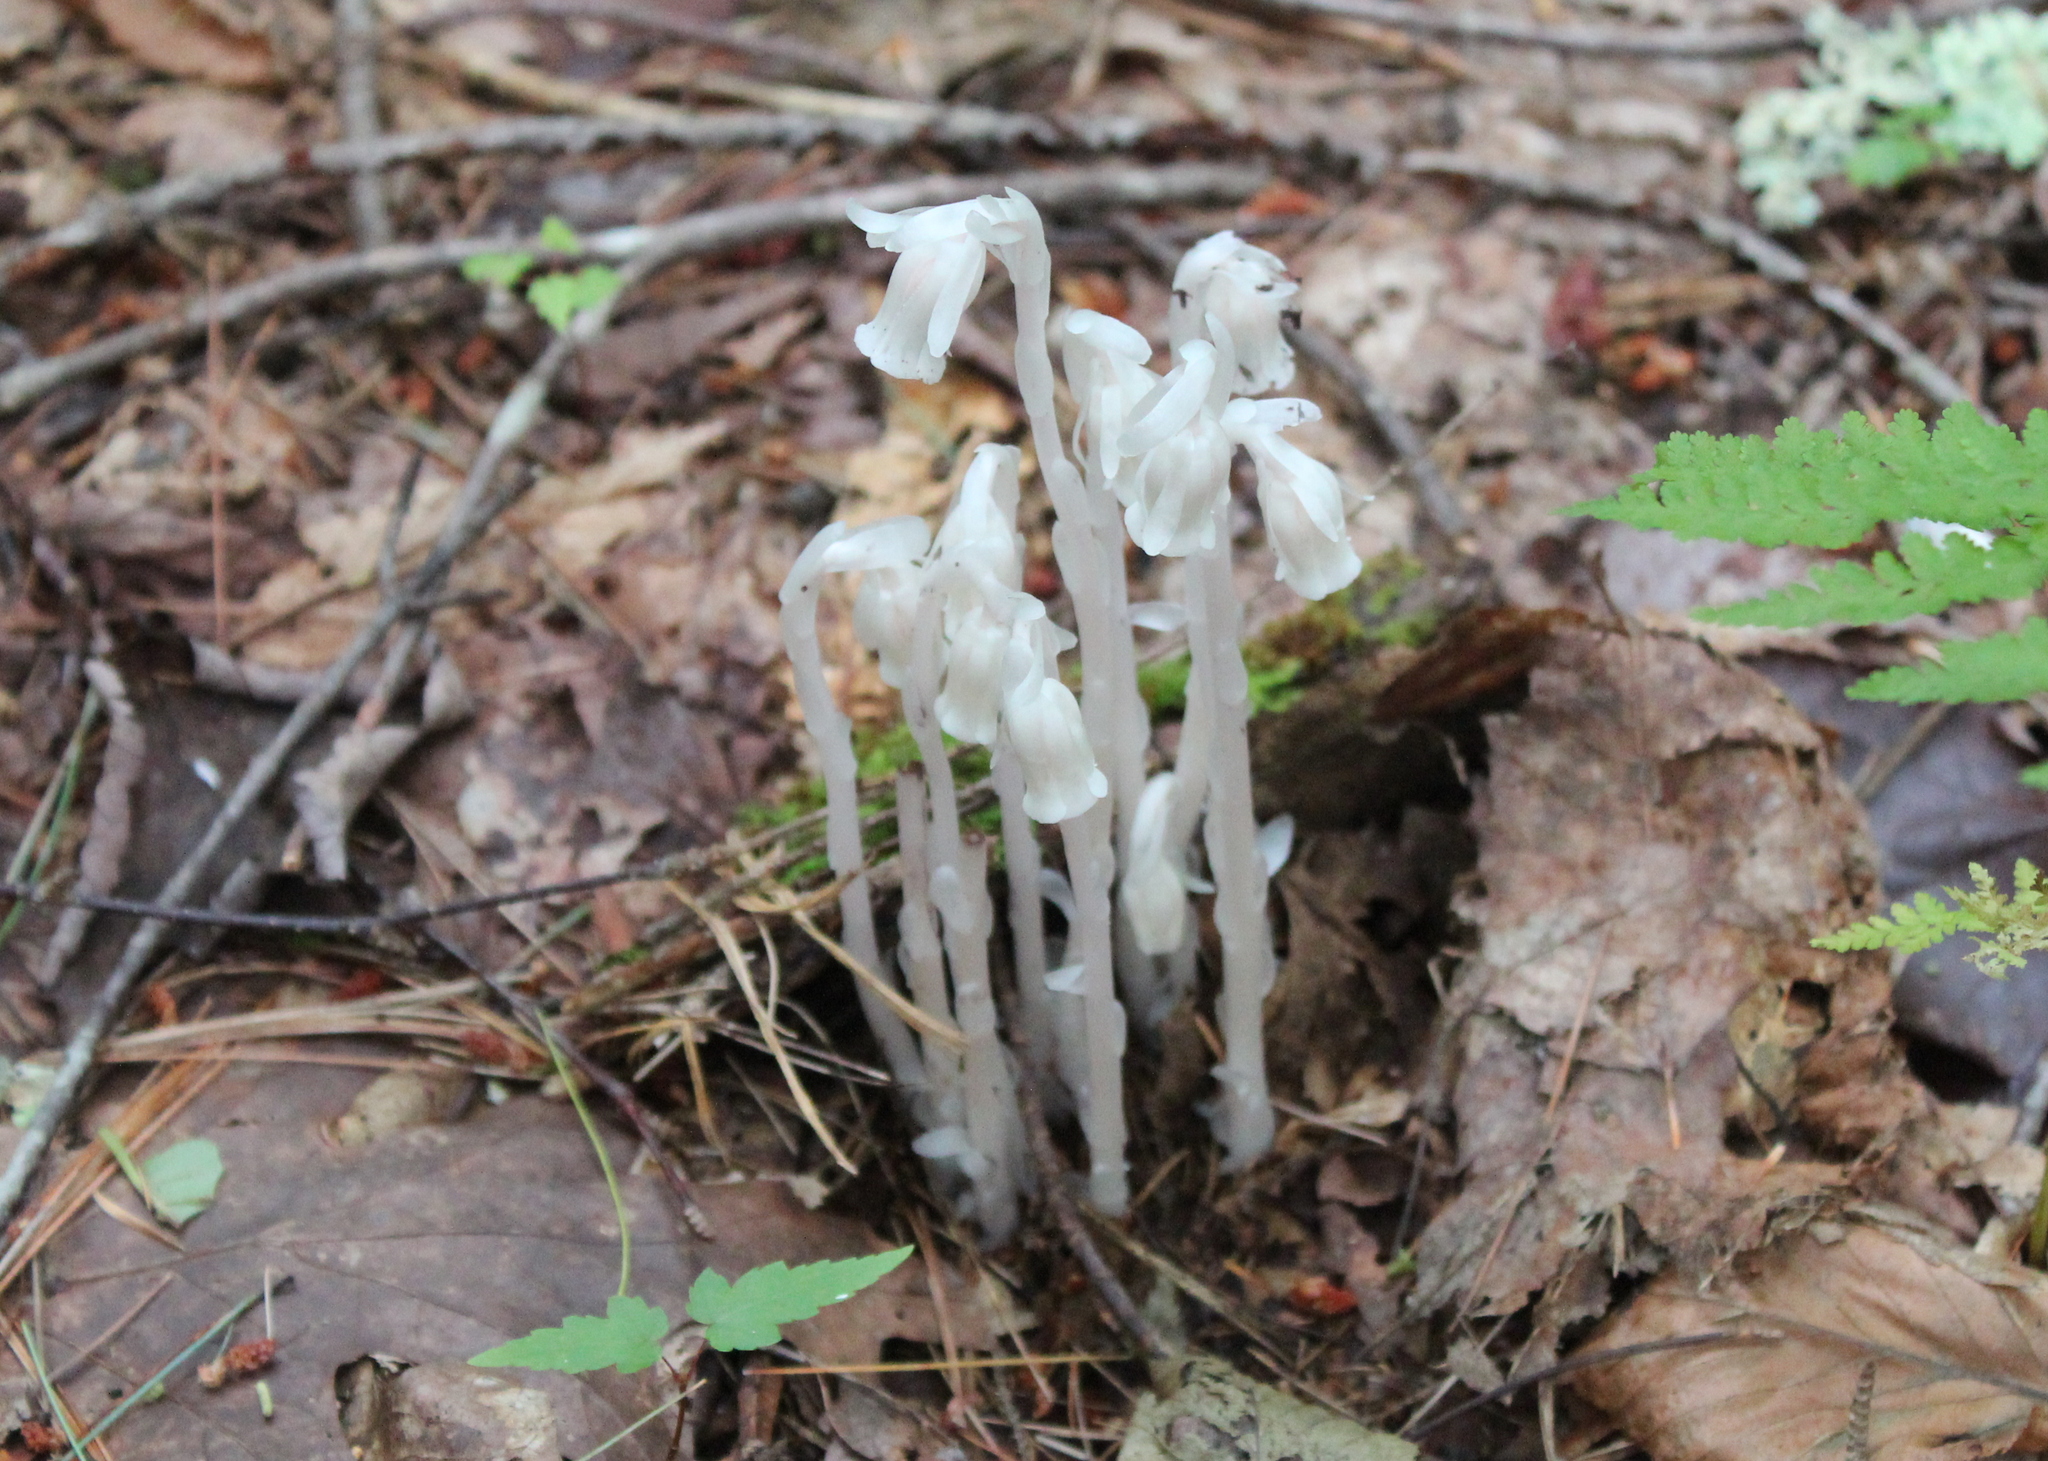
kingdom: Plantae
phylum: Tracheophyta
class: Magnoliopsida
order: Ericales
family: Ericaceae
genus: Monotropa
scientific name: Monotropa uniflora
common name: Convulsion root
